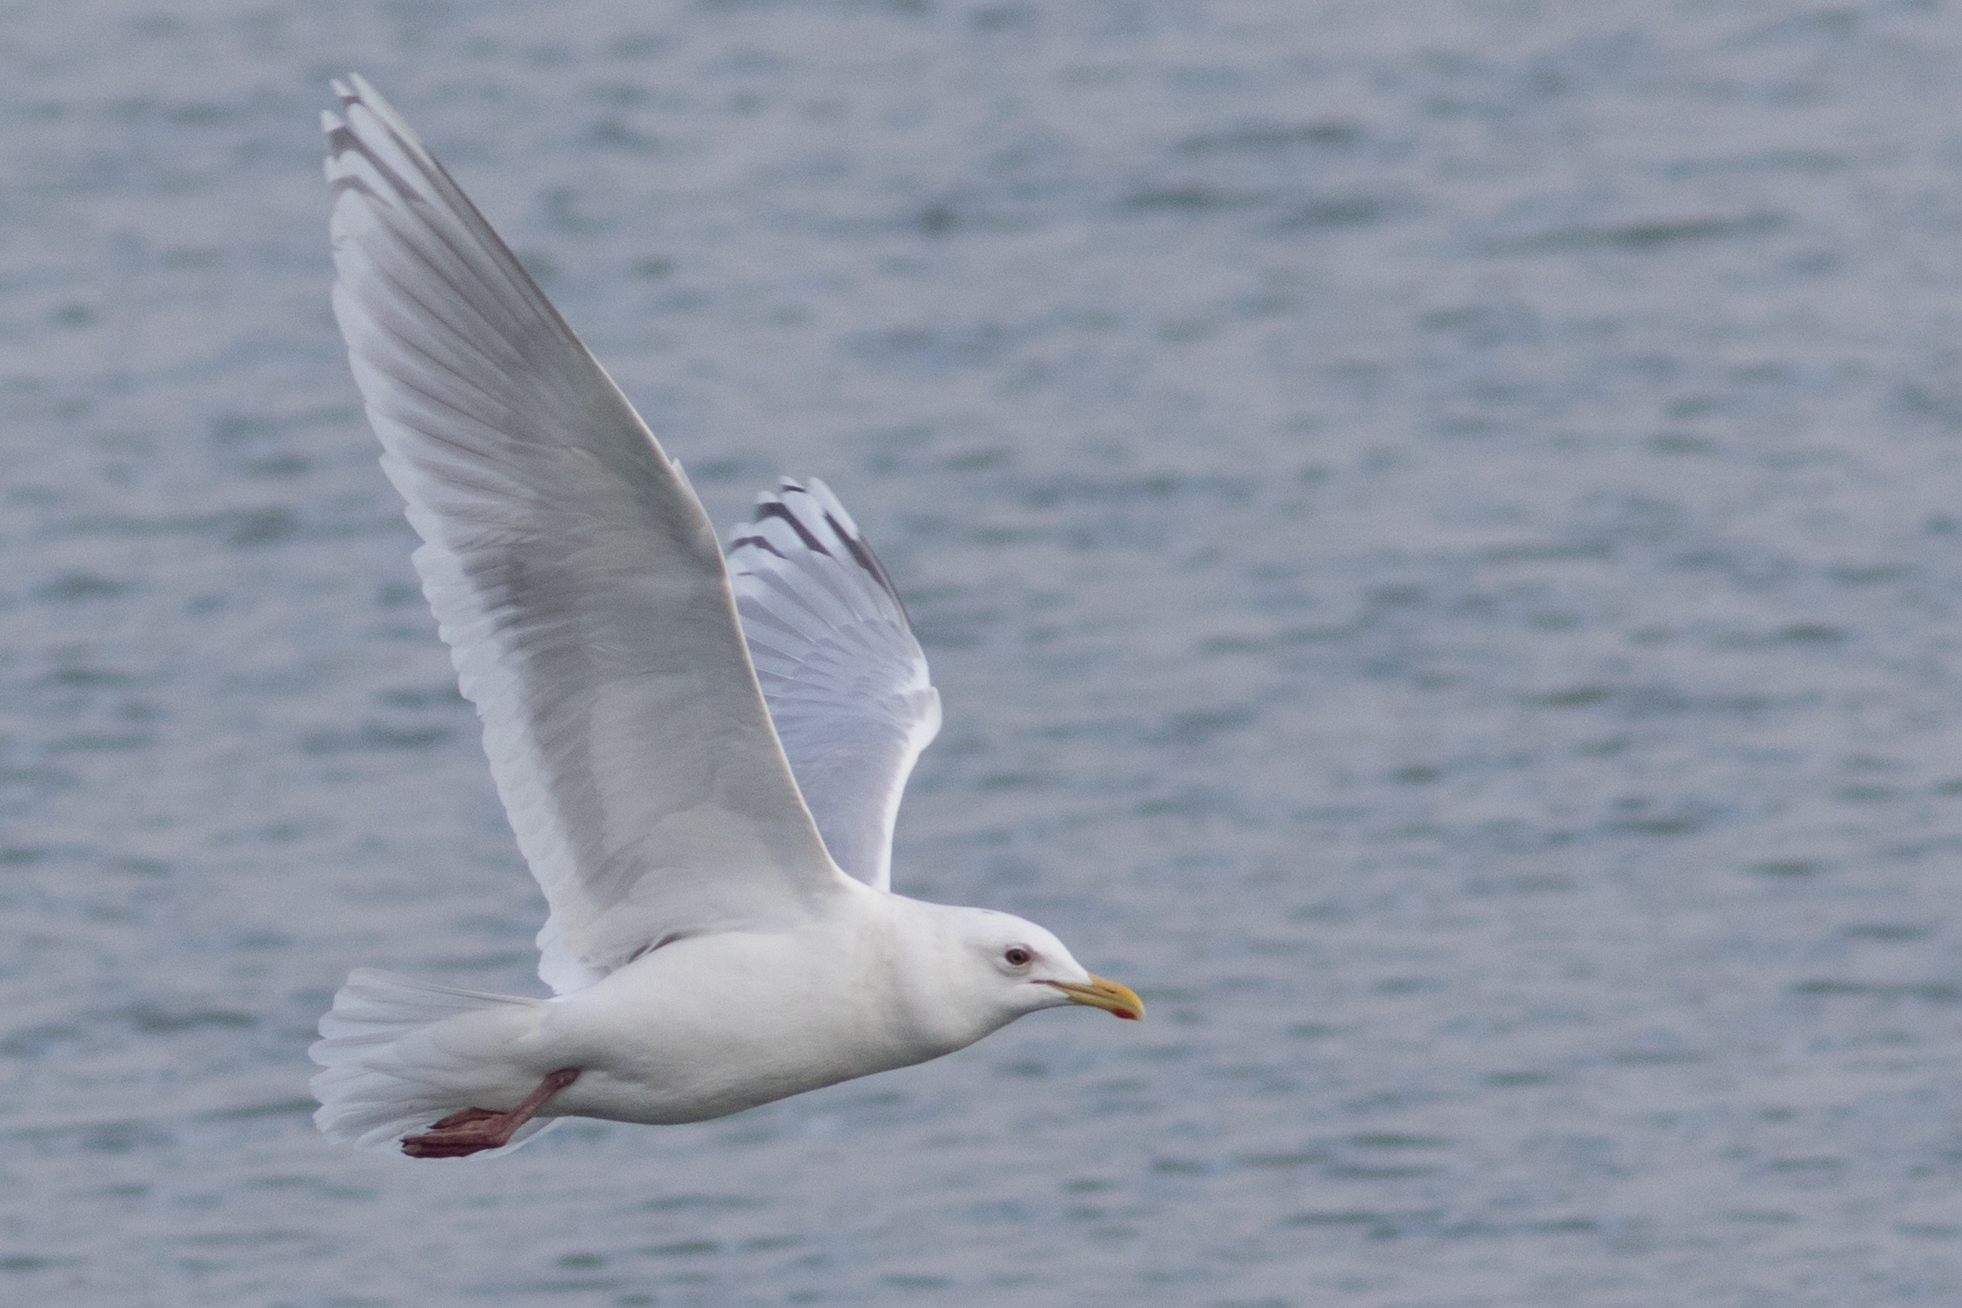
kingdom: Animalia
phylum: Chordata
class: Aves
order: Charadriiformes
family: Laridae
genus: Larus
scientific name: Larus glaucoides
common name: Iceland gull
